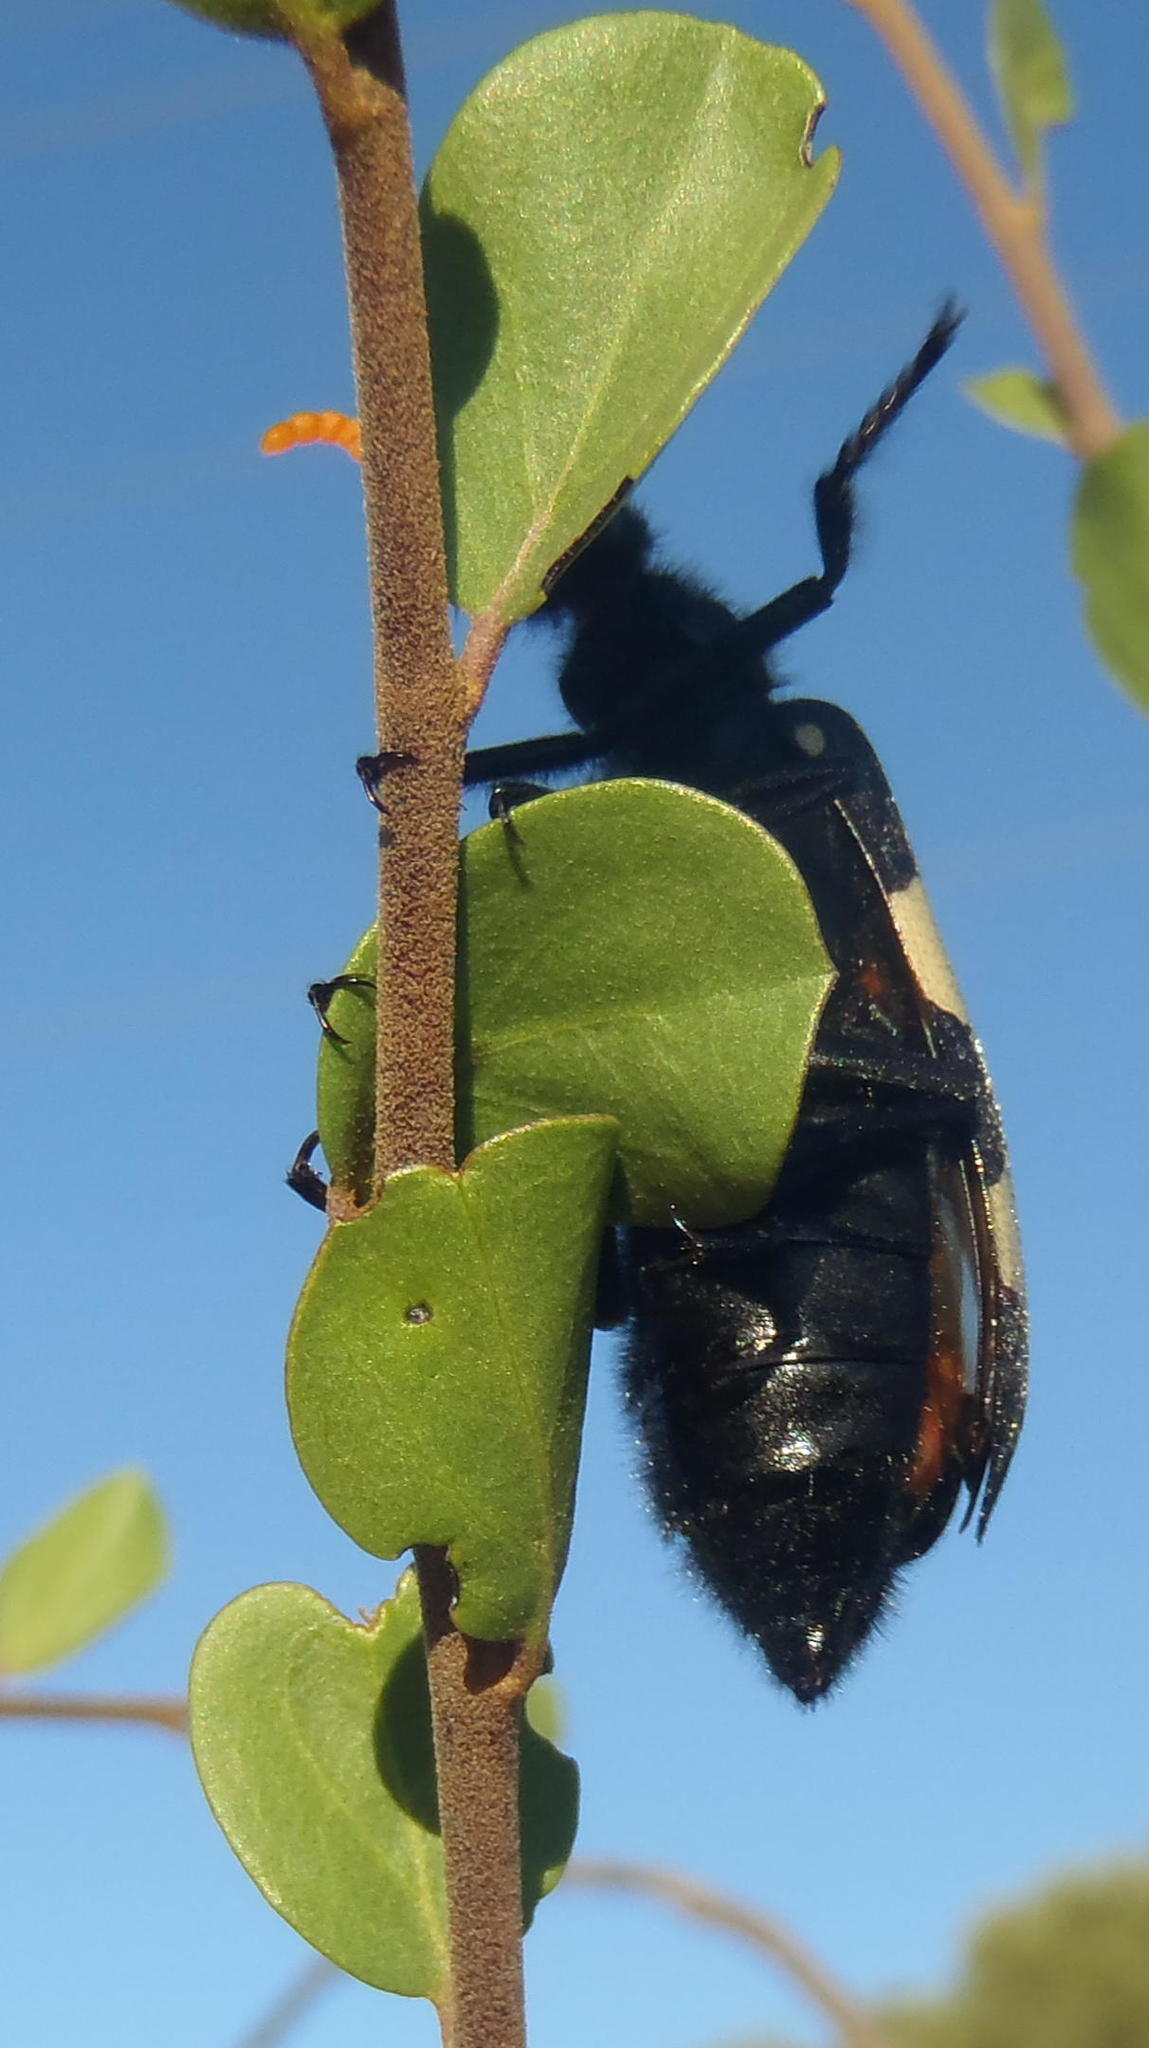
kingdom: Animalia
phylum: Arthropoda
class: Insecta
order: Coleoptera
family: Meloidae
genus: Hycleus
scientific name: Hycleus
